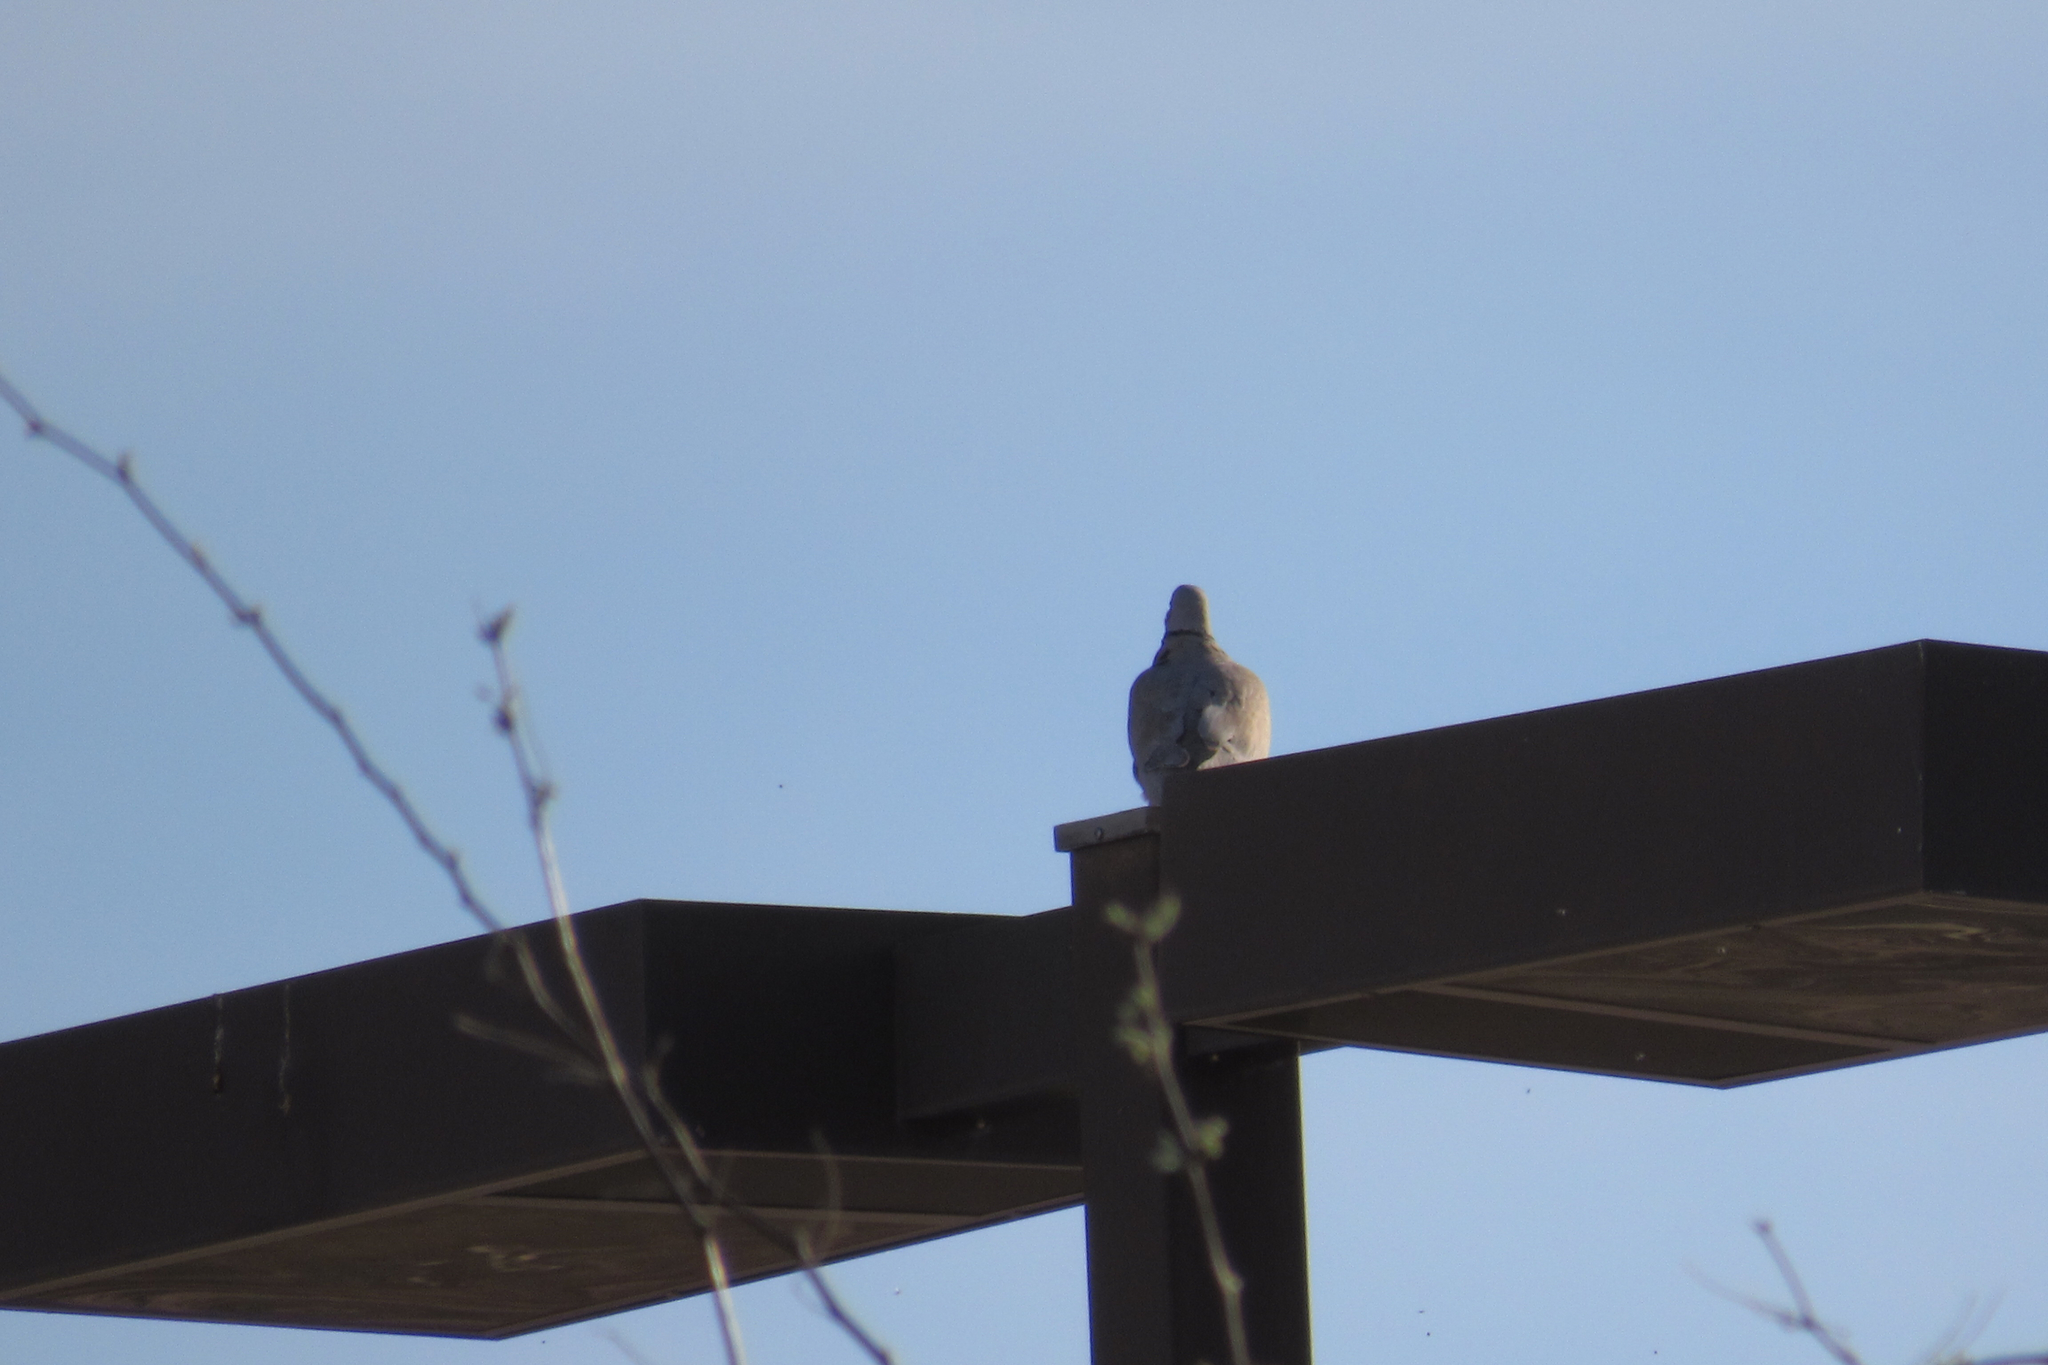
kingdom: Animalia
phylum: Chordata
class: Aves
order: Columbiformes
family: Columbidae
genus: Streptopelia
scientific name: Streptopelia decaocto
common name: Eurasian collared dove
